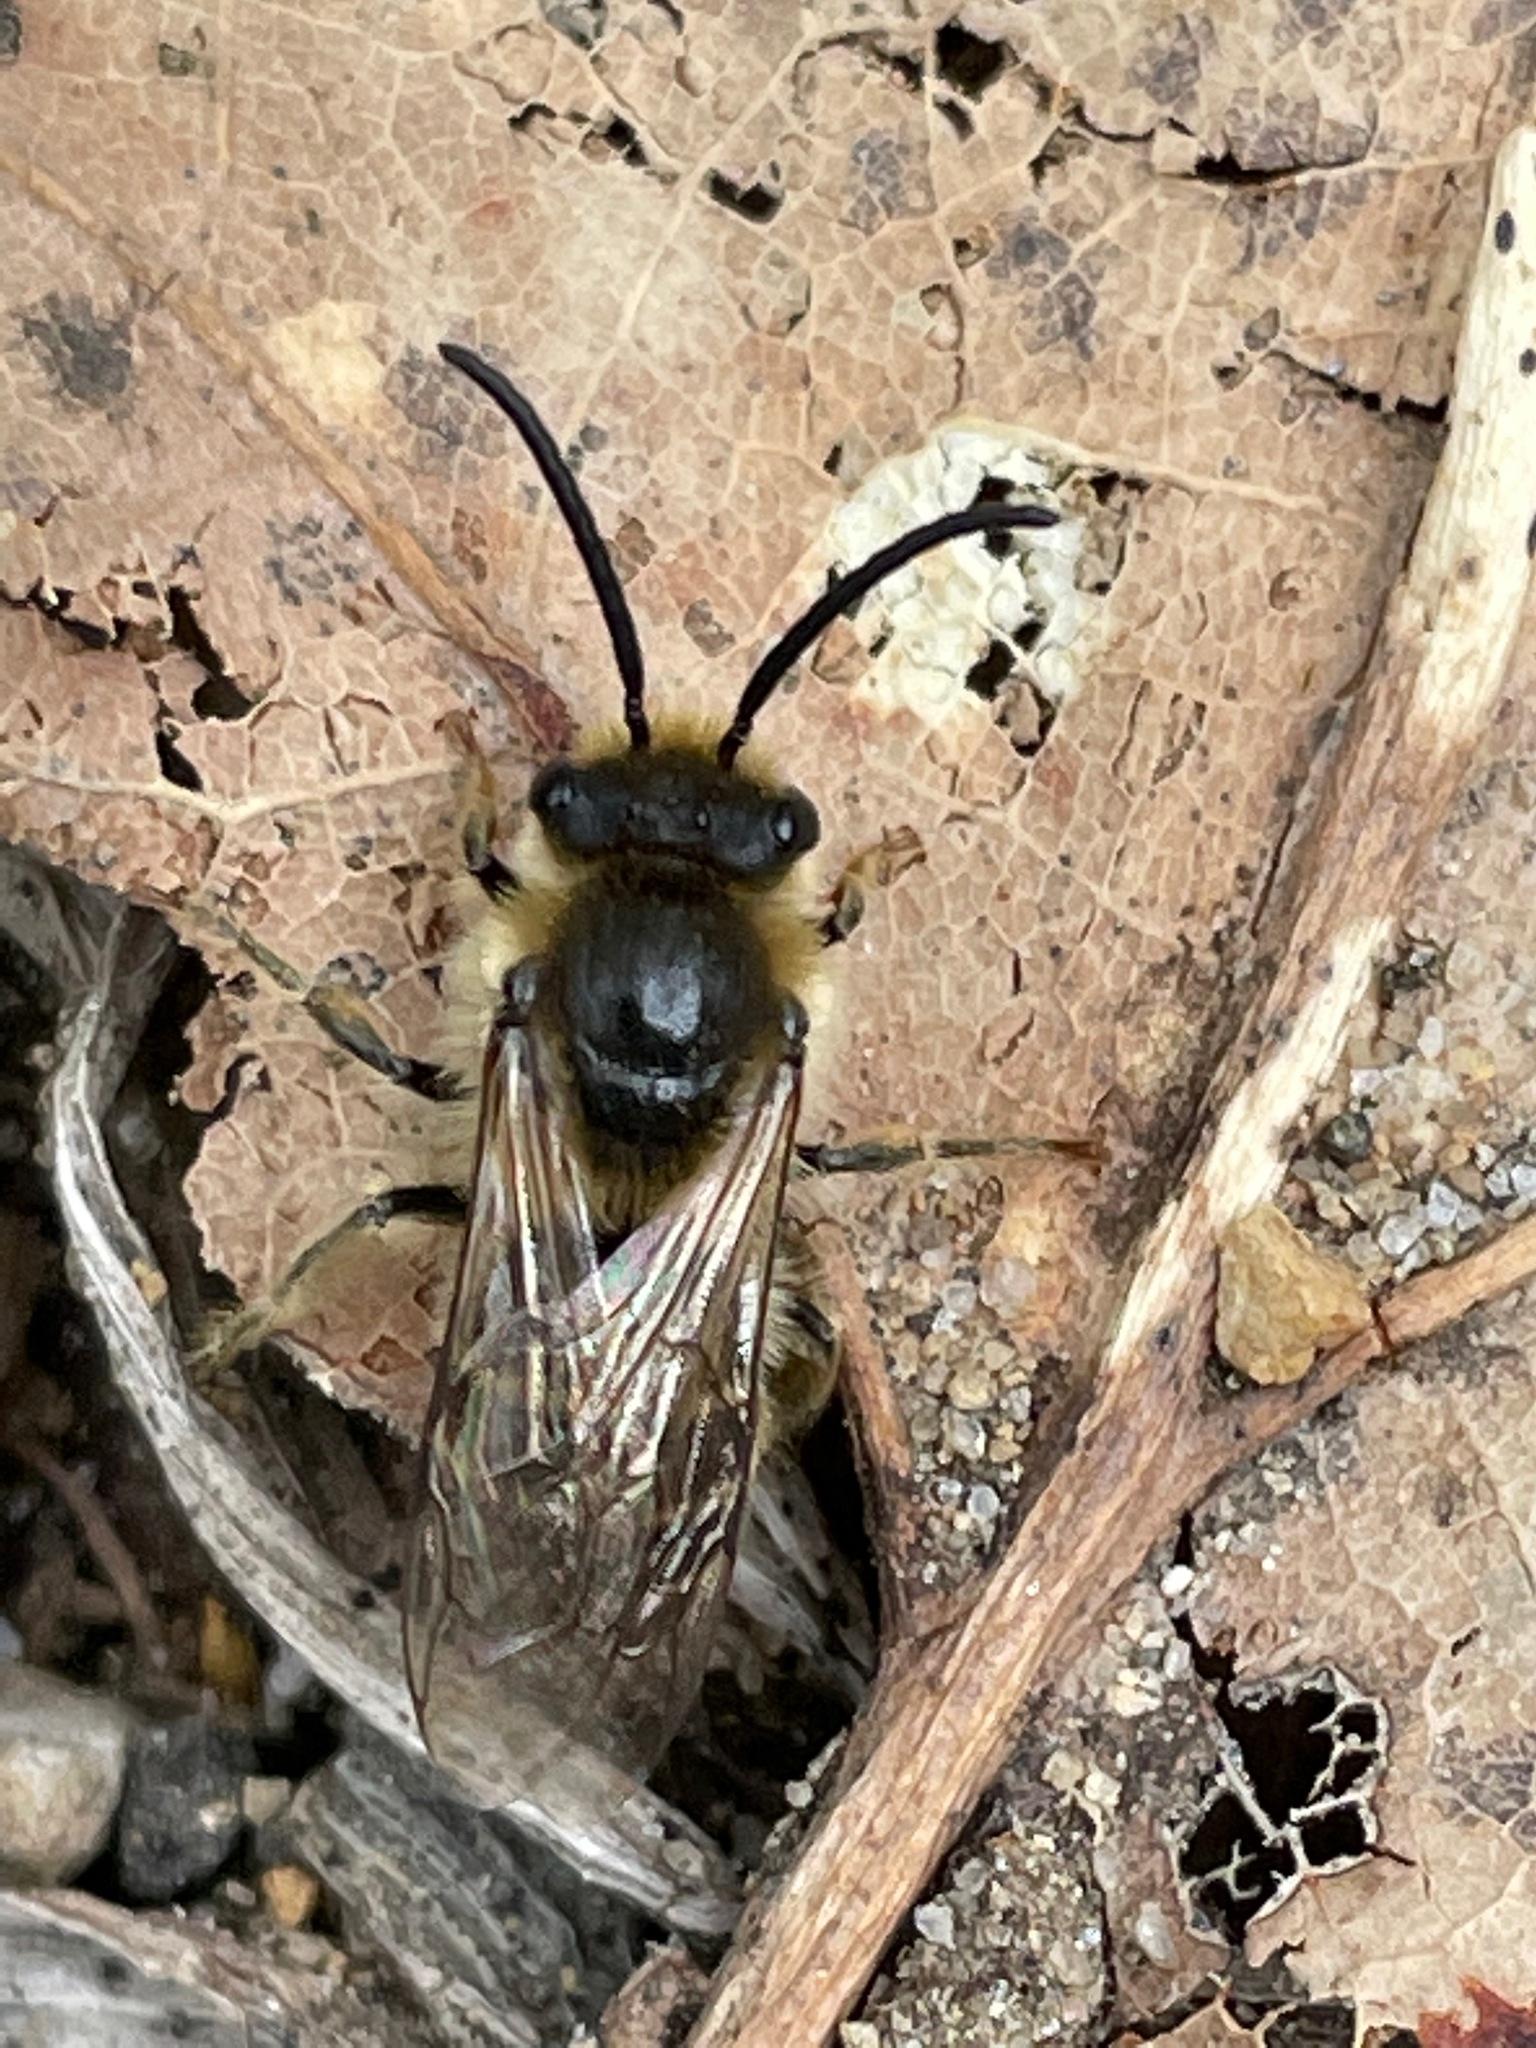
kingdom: Animalia
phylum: Arthropoda
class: Insecta
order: Hymenoptera
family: Colletidae
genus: Colletes
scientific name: Colletes inaequalis
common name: Unequal cellophane bee
